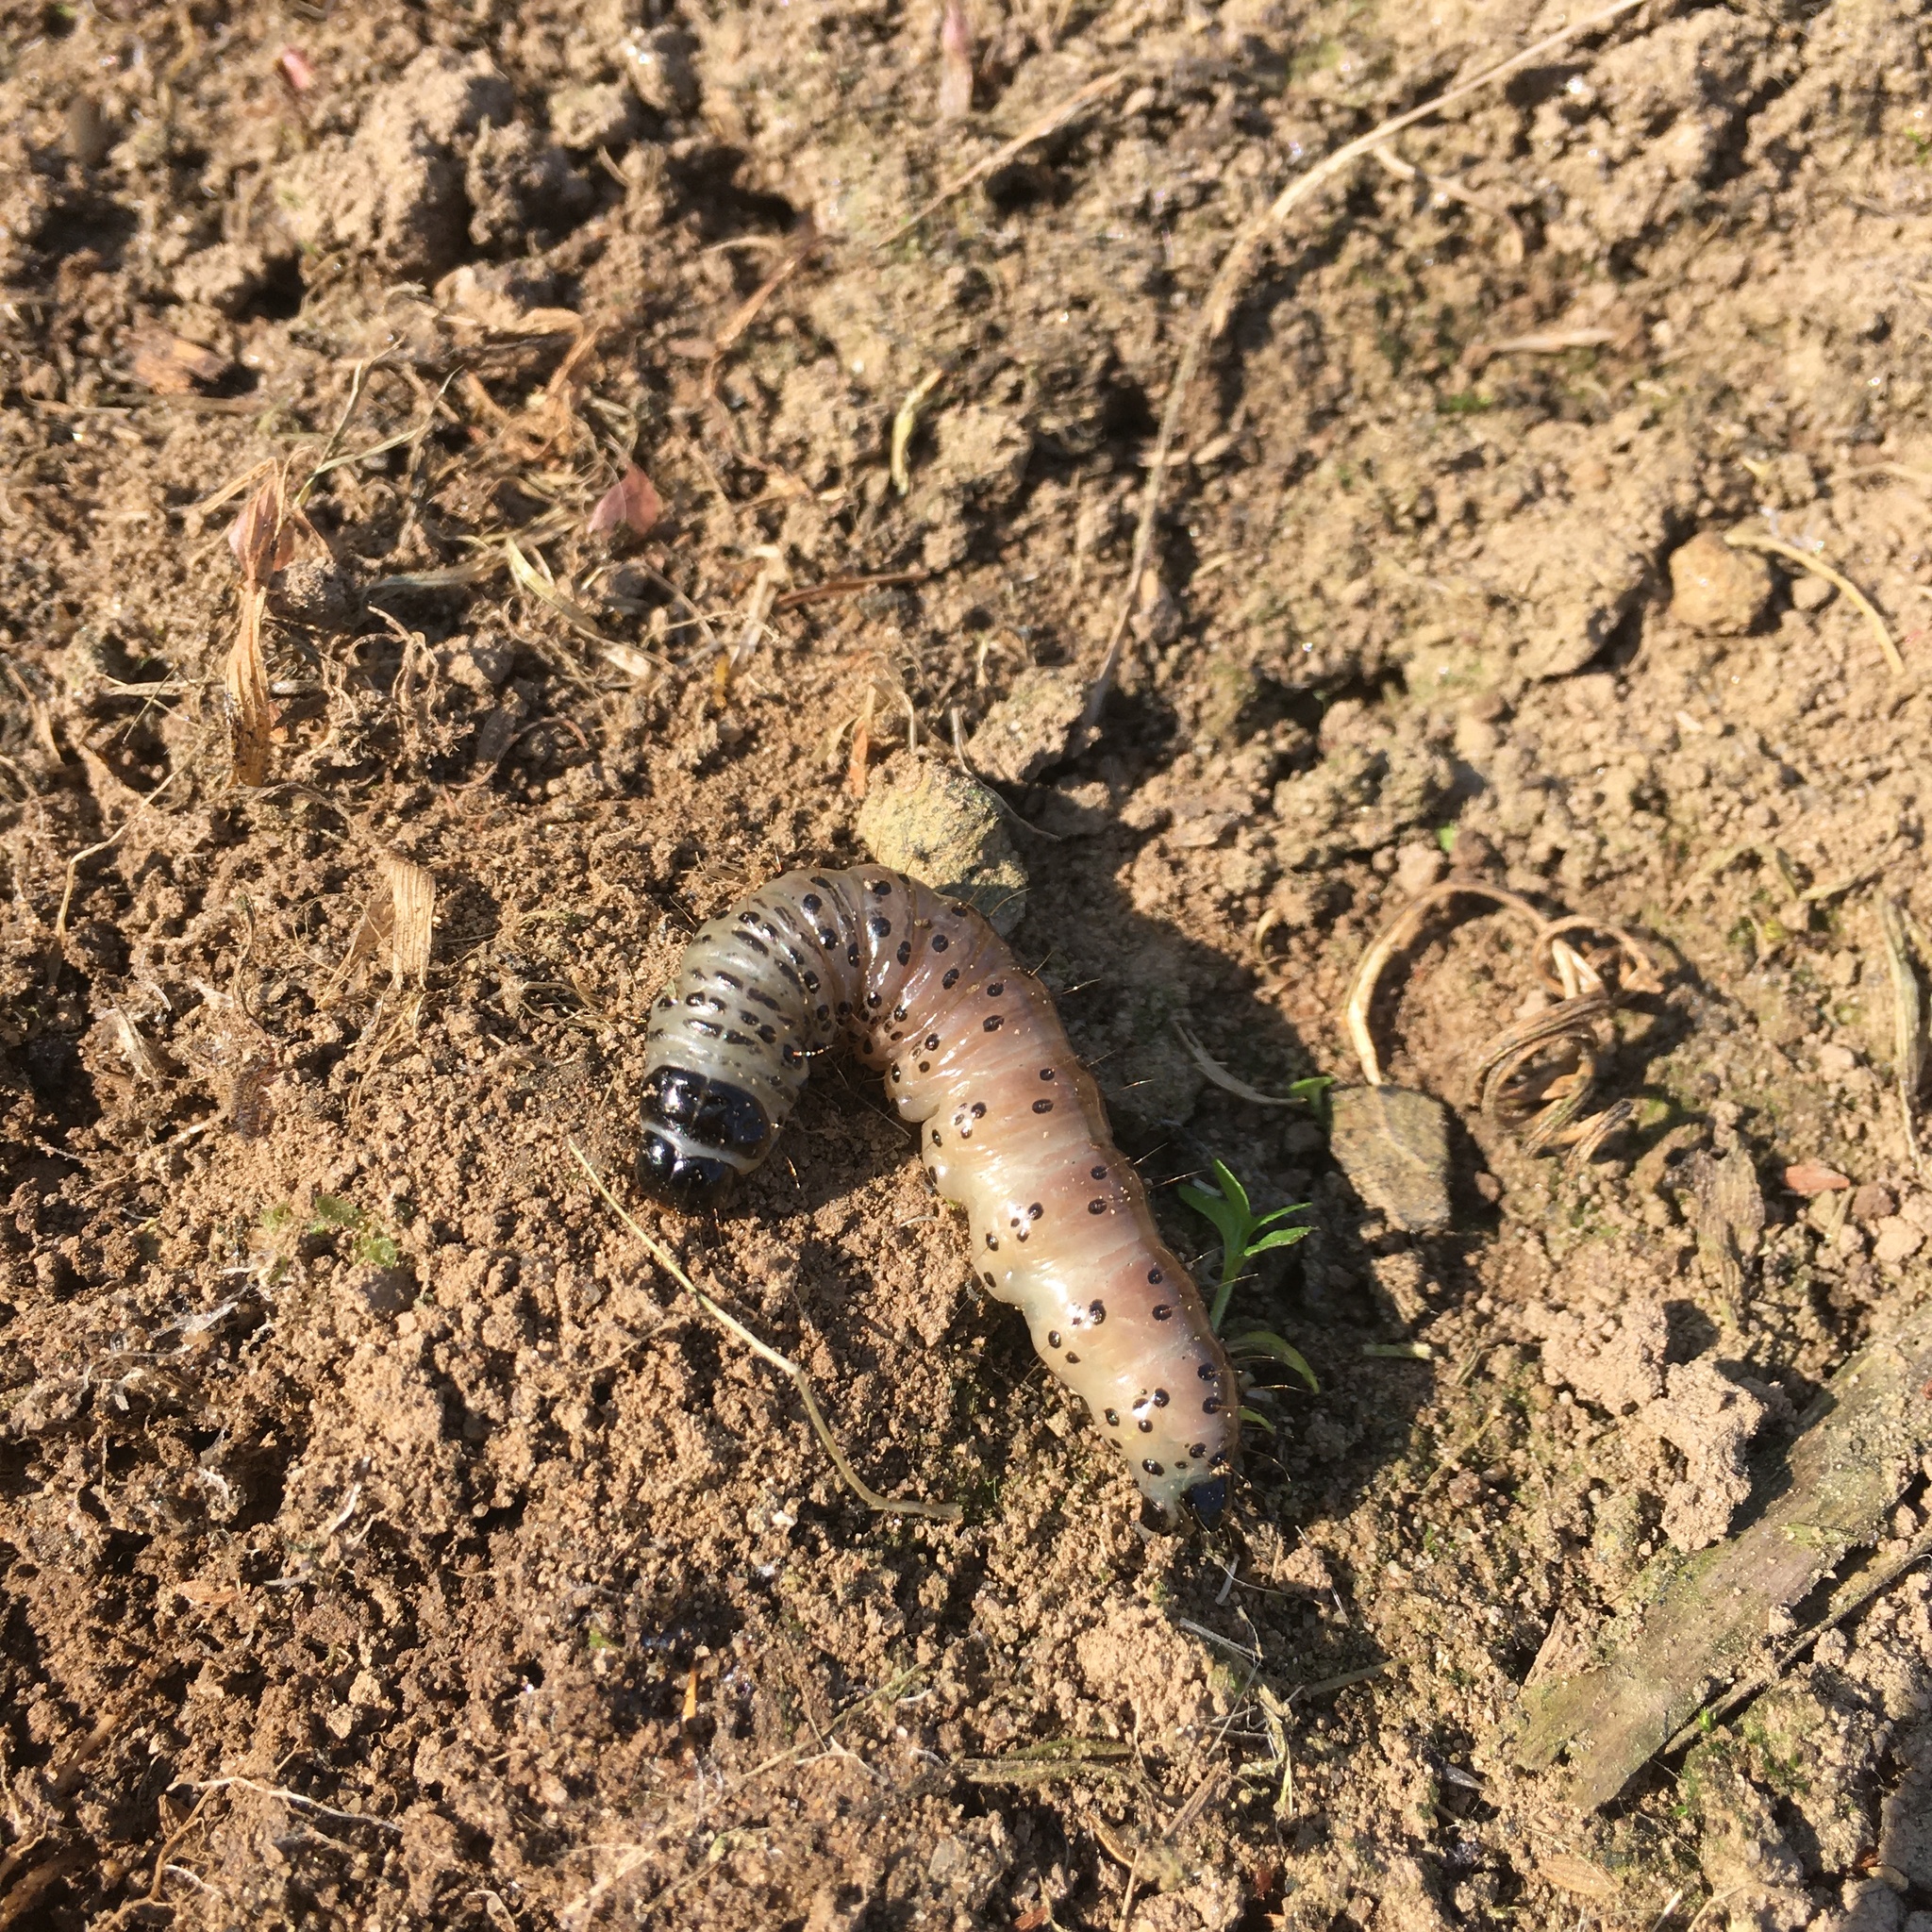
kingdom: Animalia
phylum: Arthropoda
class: Insecta
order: Lepidoptera
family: Depressariidae
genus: Depressaria
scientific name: Depressaria radiella
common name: Parsnip moth
